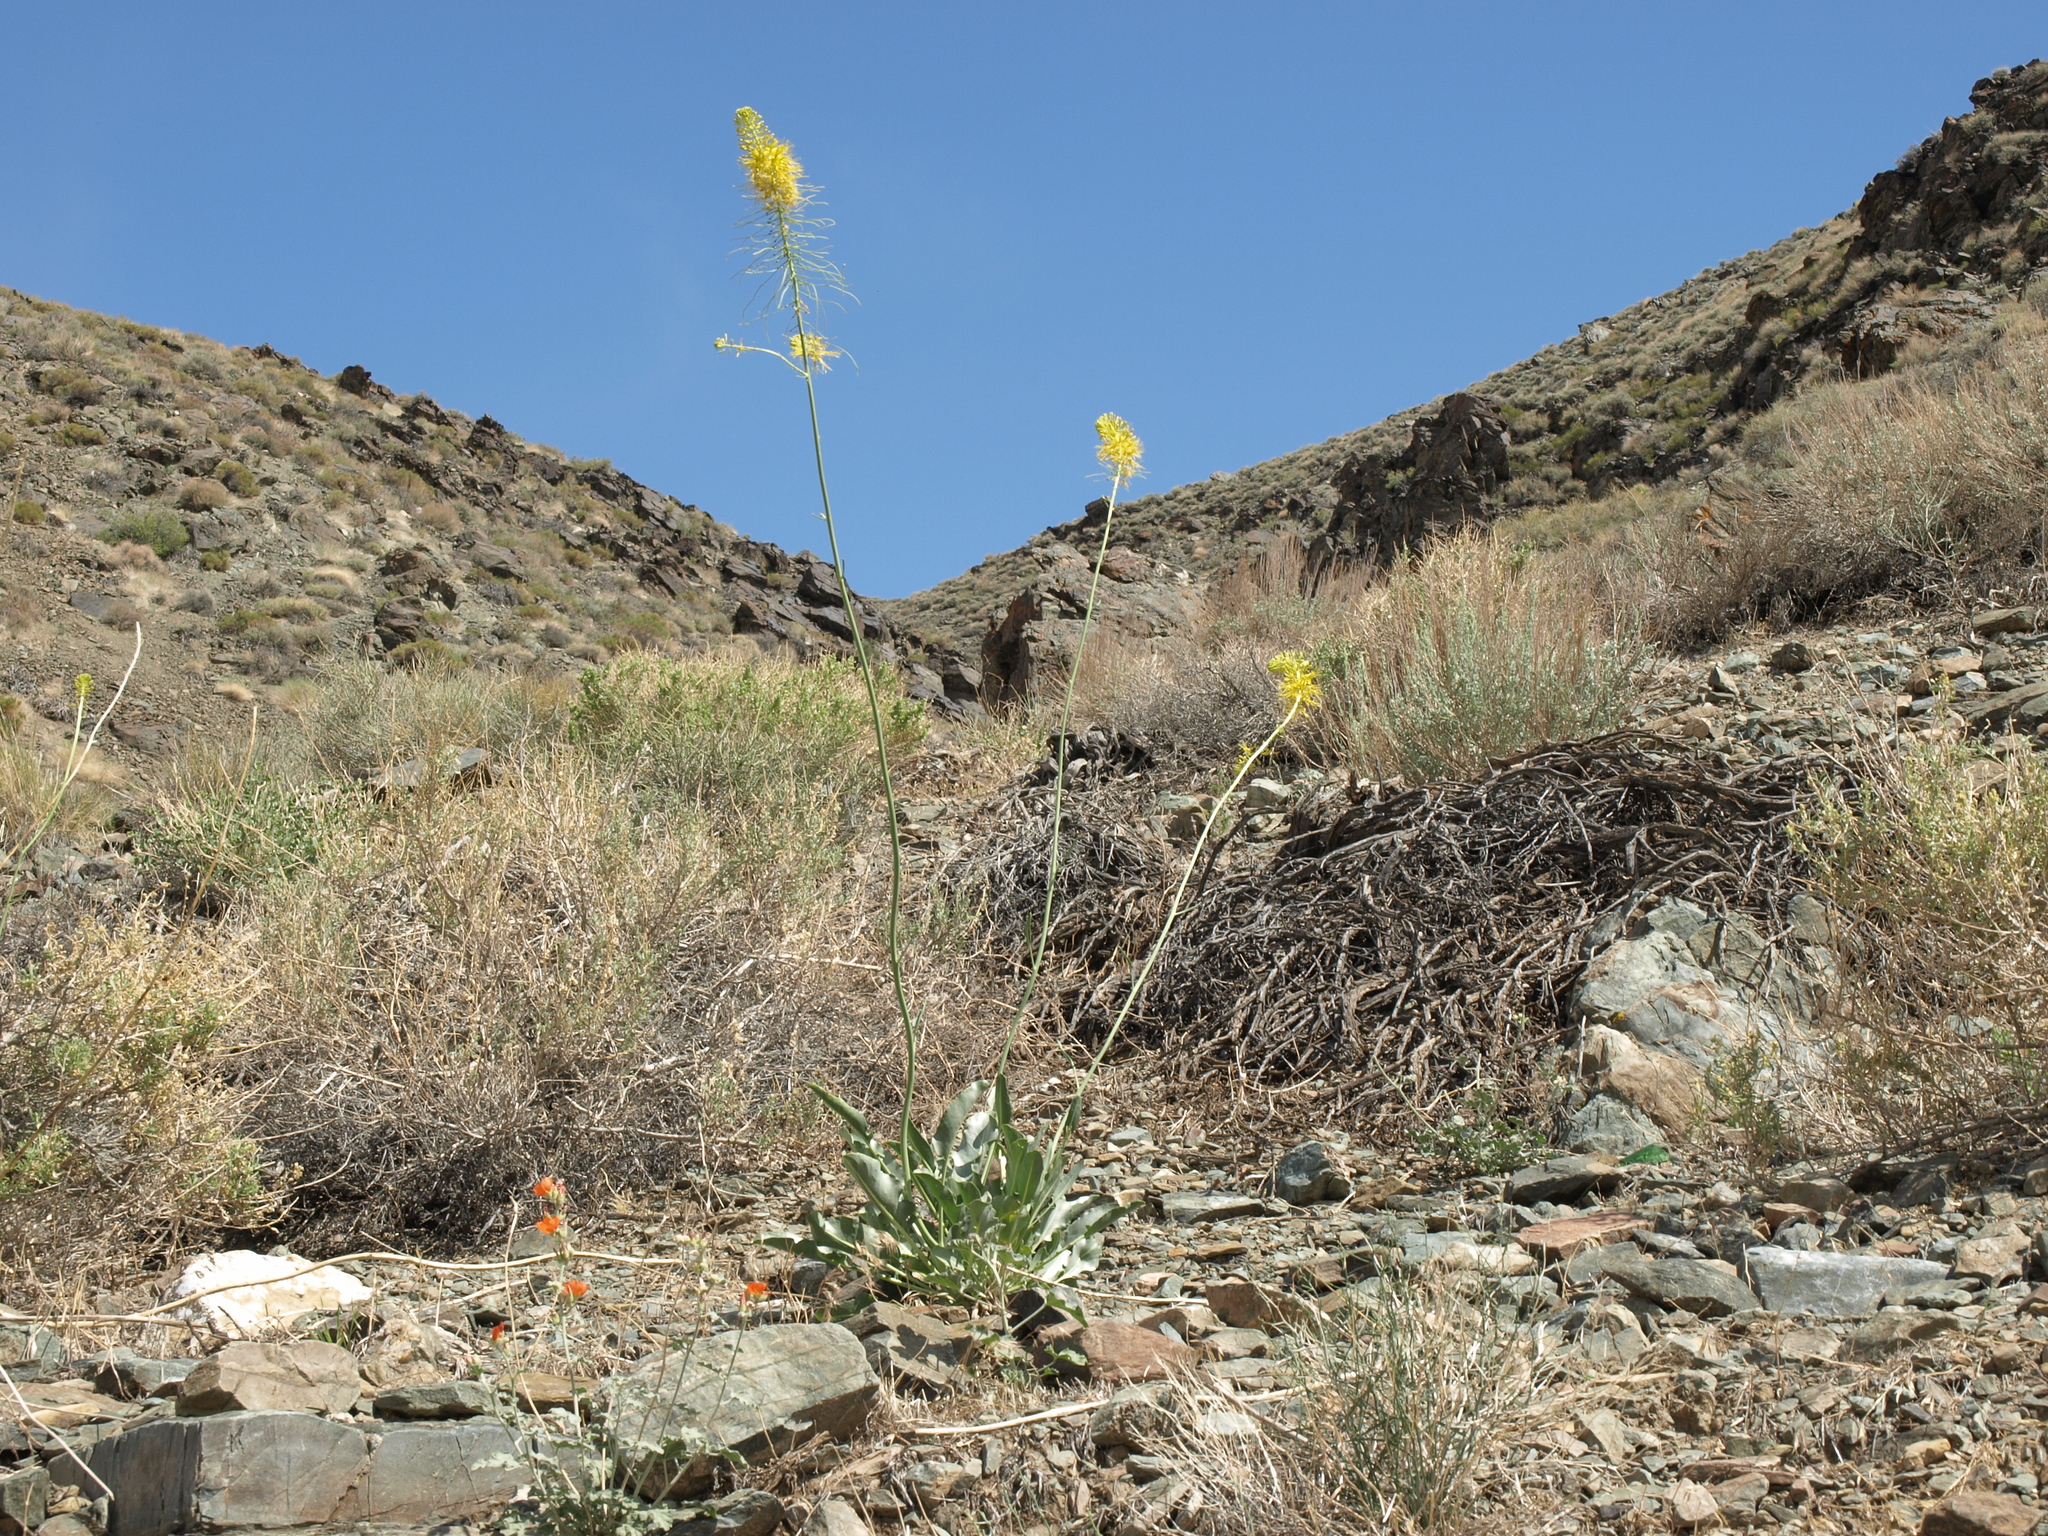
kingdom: Plantae
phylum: Tracheophyta
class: Magnoliopsida
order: Brassicales
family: Brassicaceae
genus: Stanleya
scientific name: Stanleya elata
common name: Panamint prince's plume
